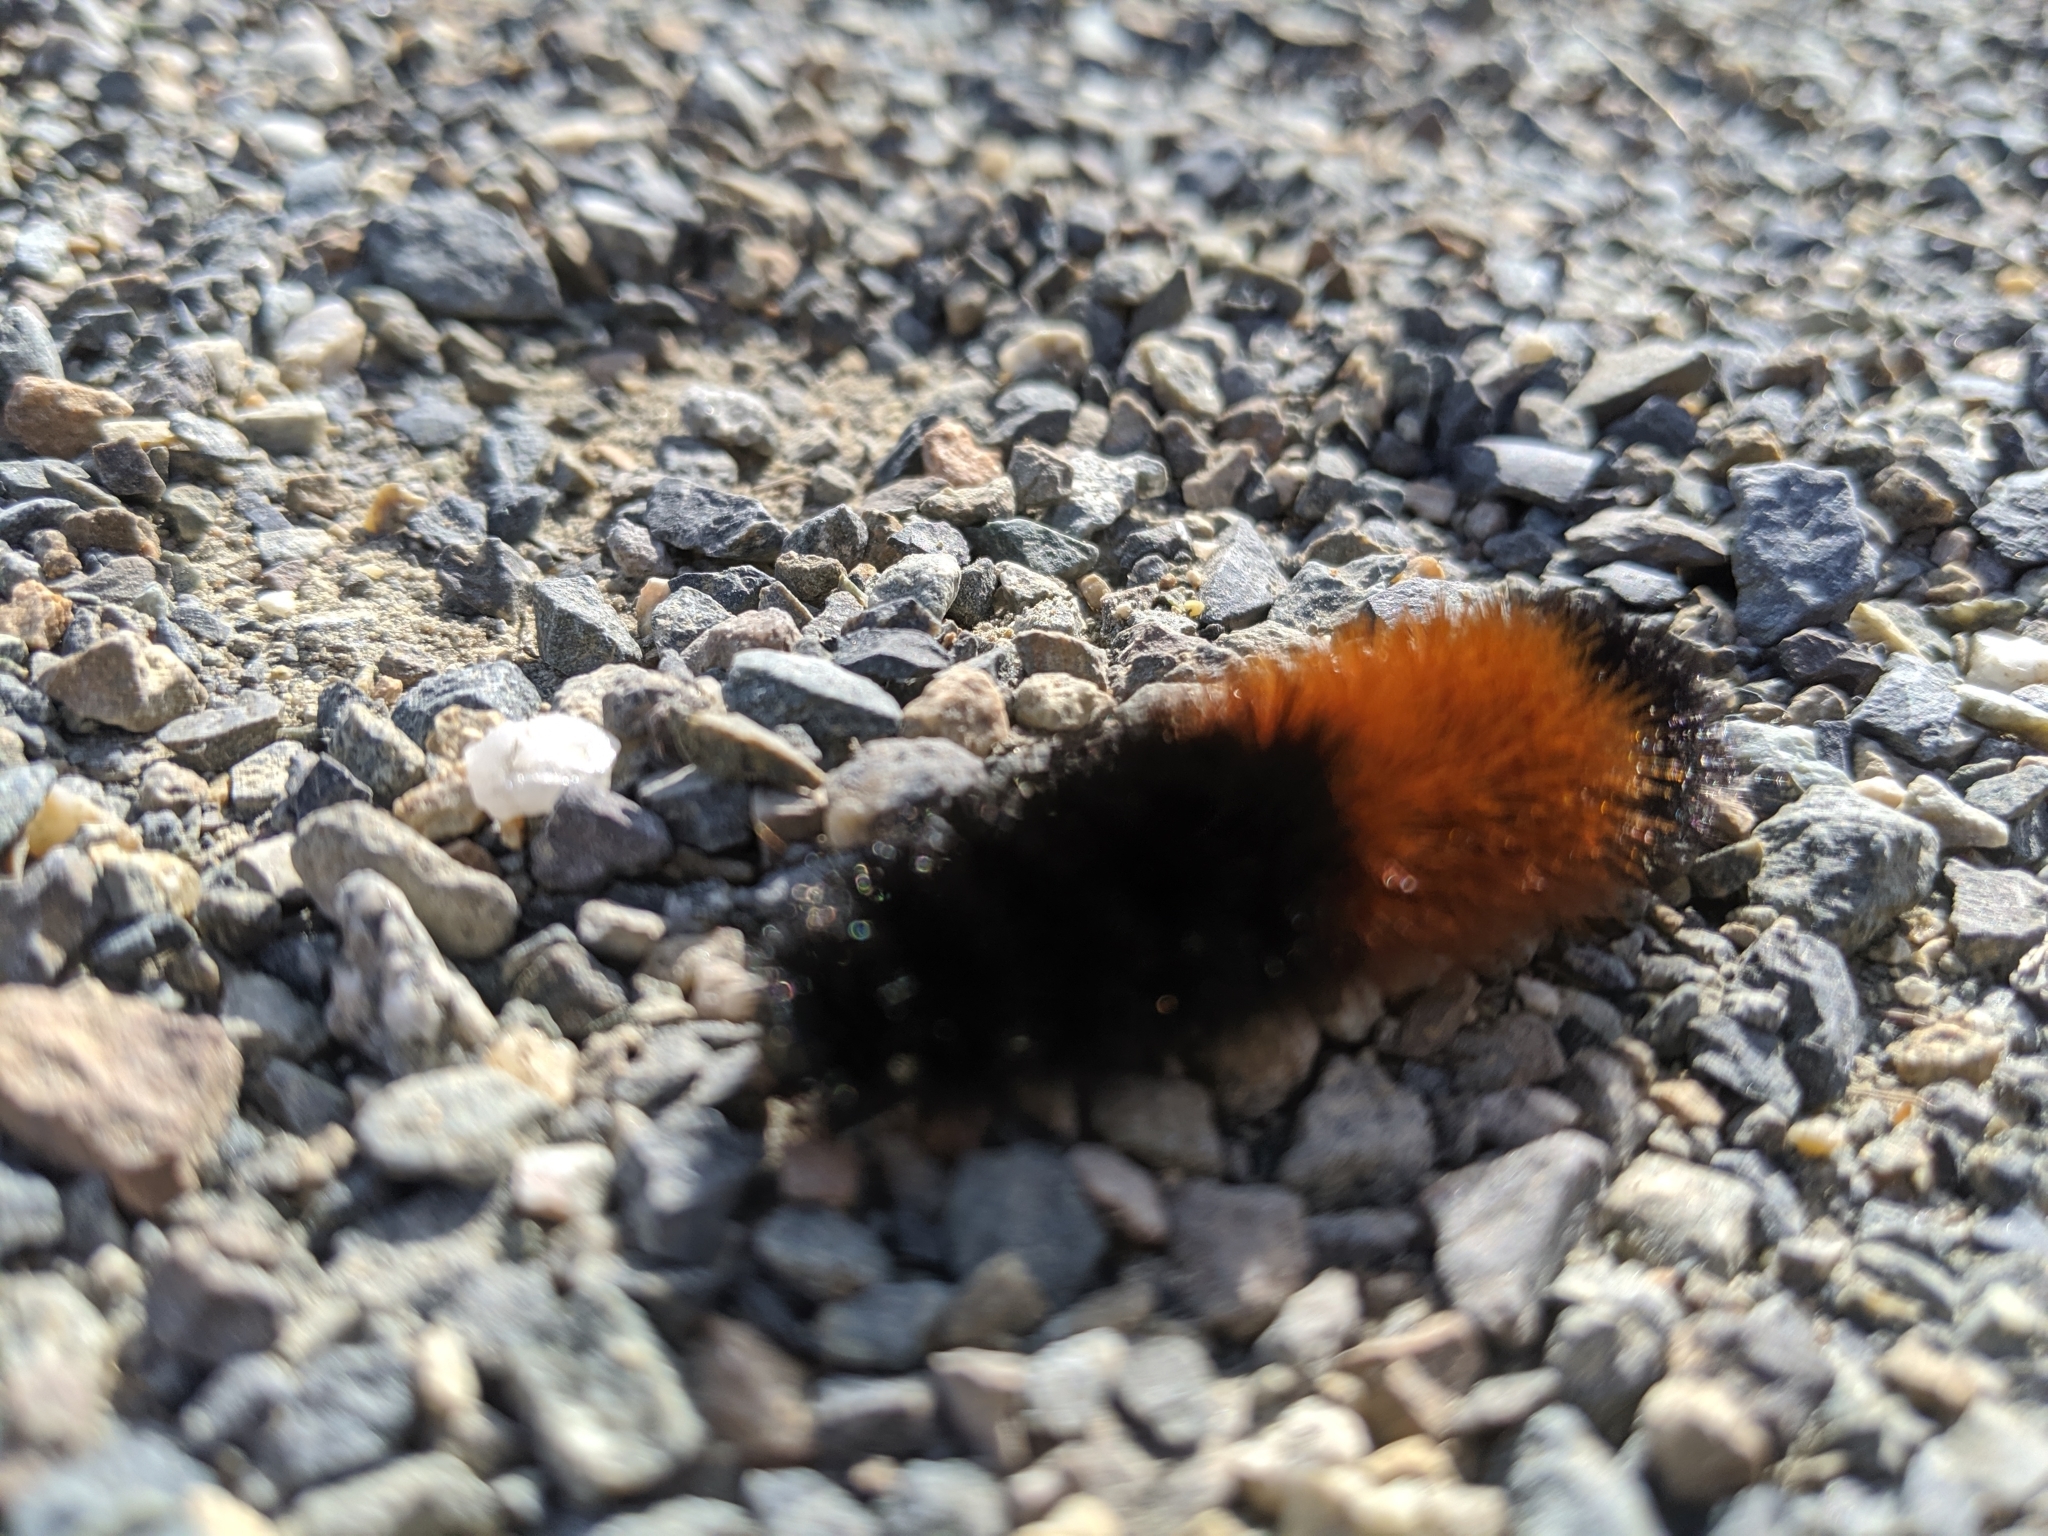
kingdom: Animalia
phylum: Arthropoda
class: Insecta
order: Lepidoptera
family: Erebidae
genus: Pyrrharctia
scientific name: Pyrrharctia isabella
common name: Isabella tiger moth
